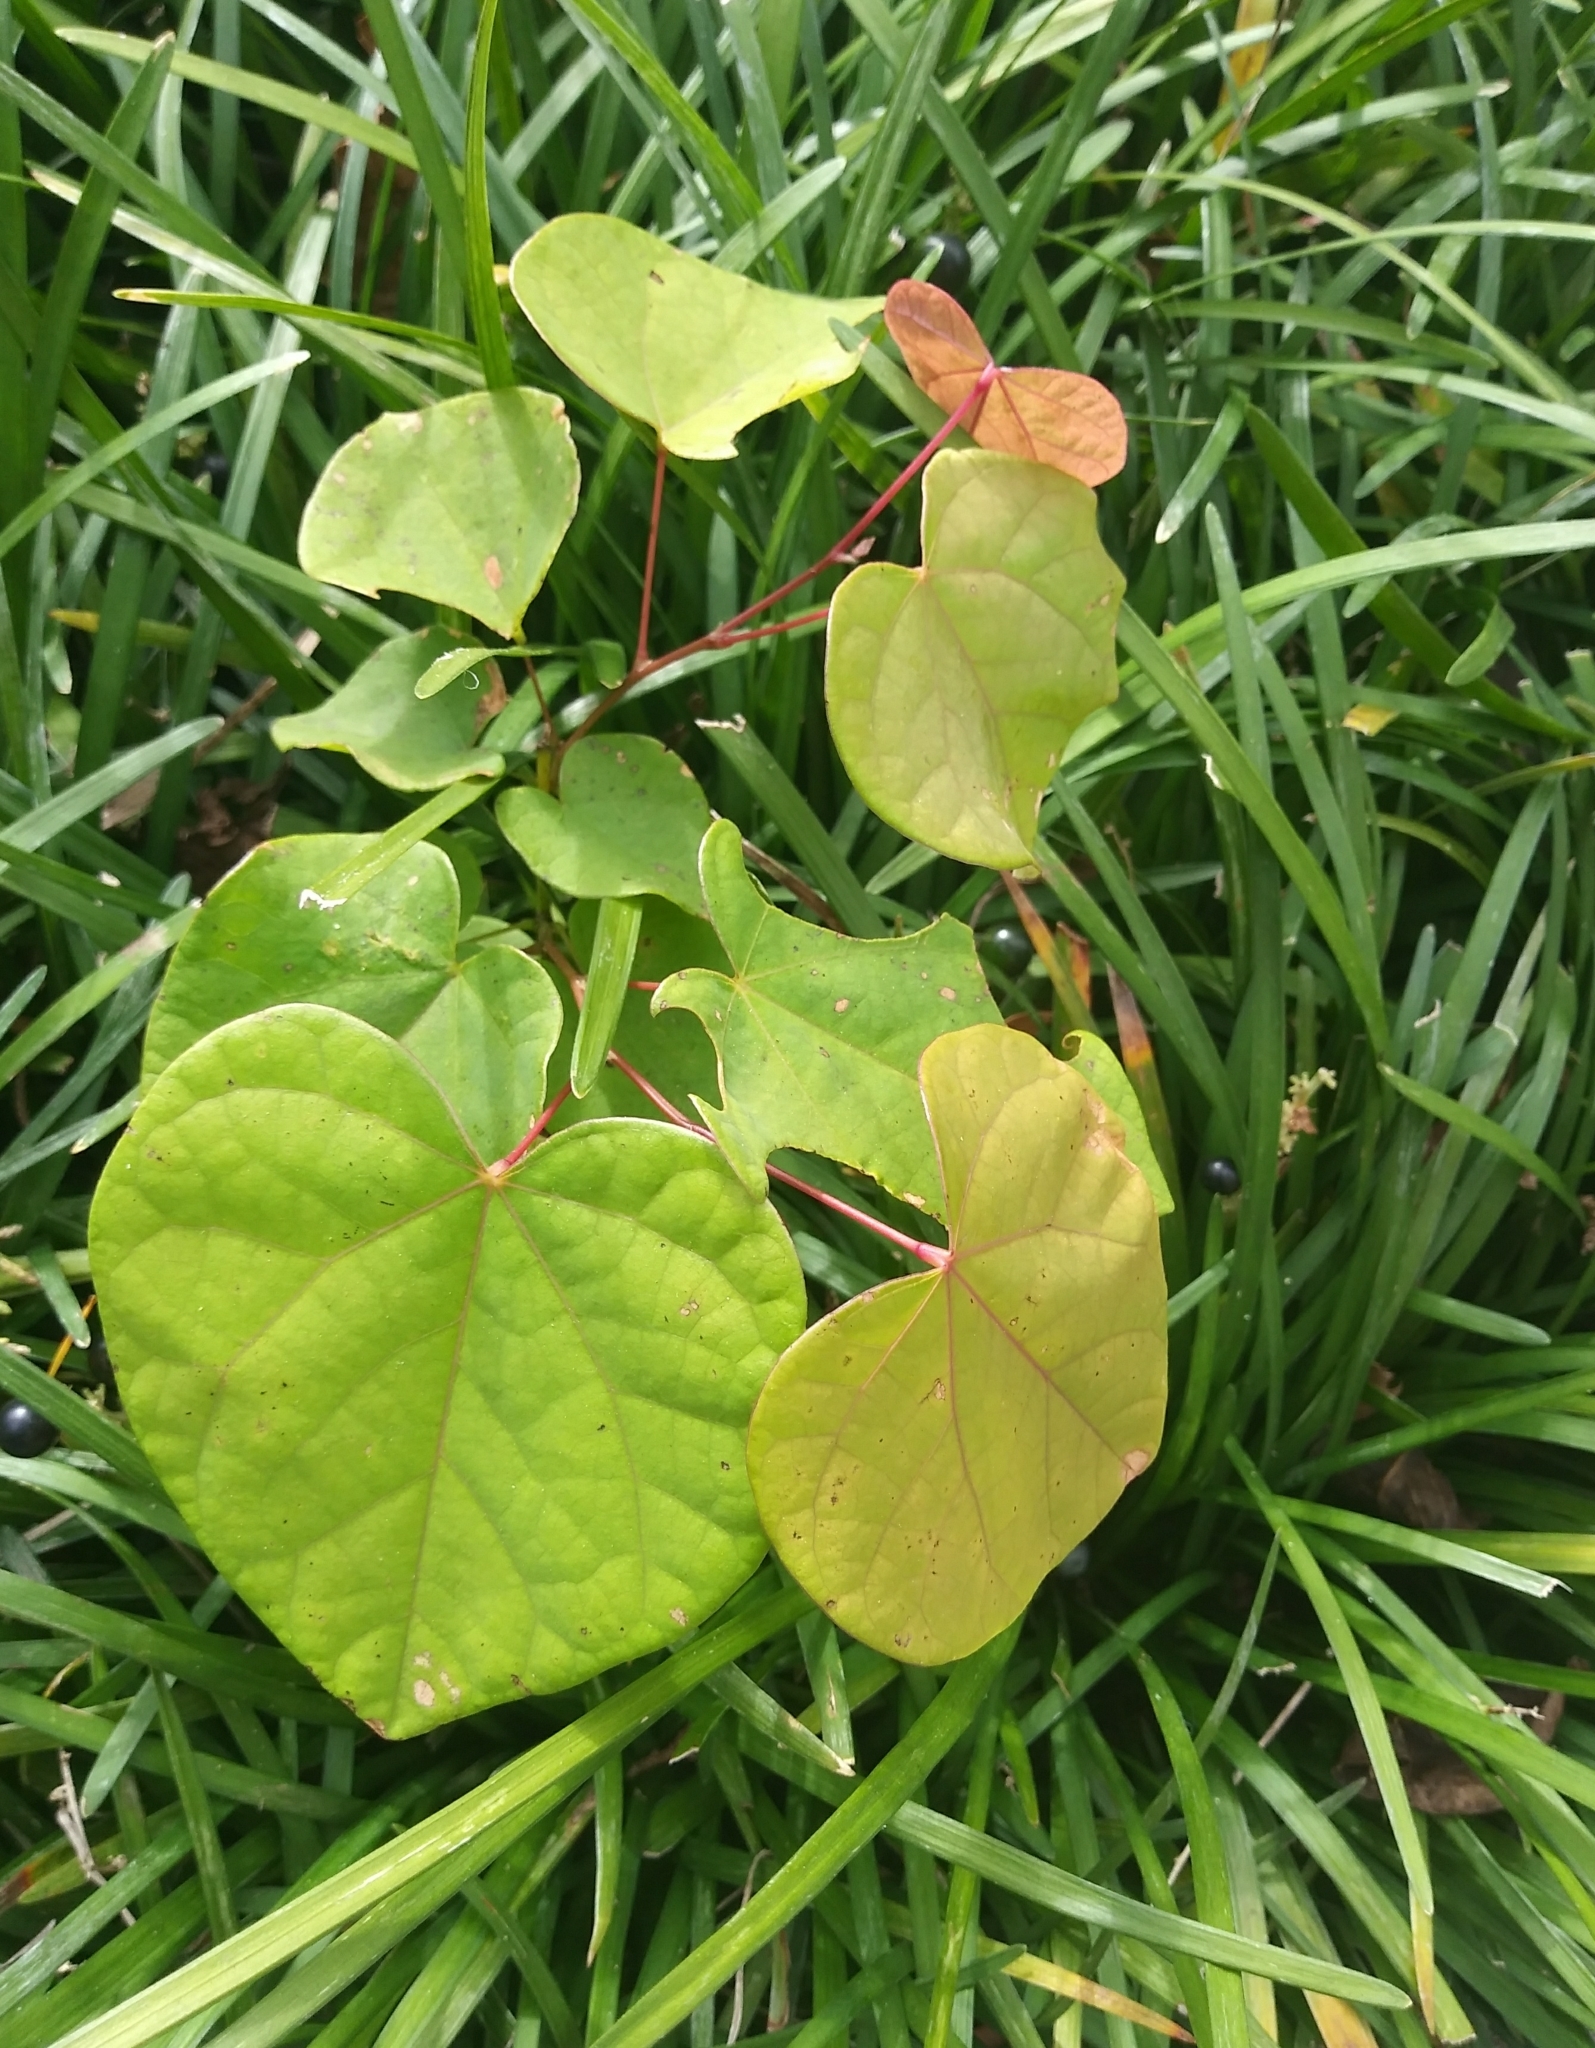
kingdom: Plantae
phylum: Tracheophyta
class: Magnoliopsida
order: Fabales
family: Fabaceae
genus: Cercis
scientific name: Cercis canadensis
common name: Eastern redbud
